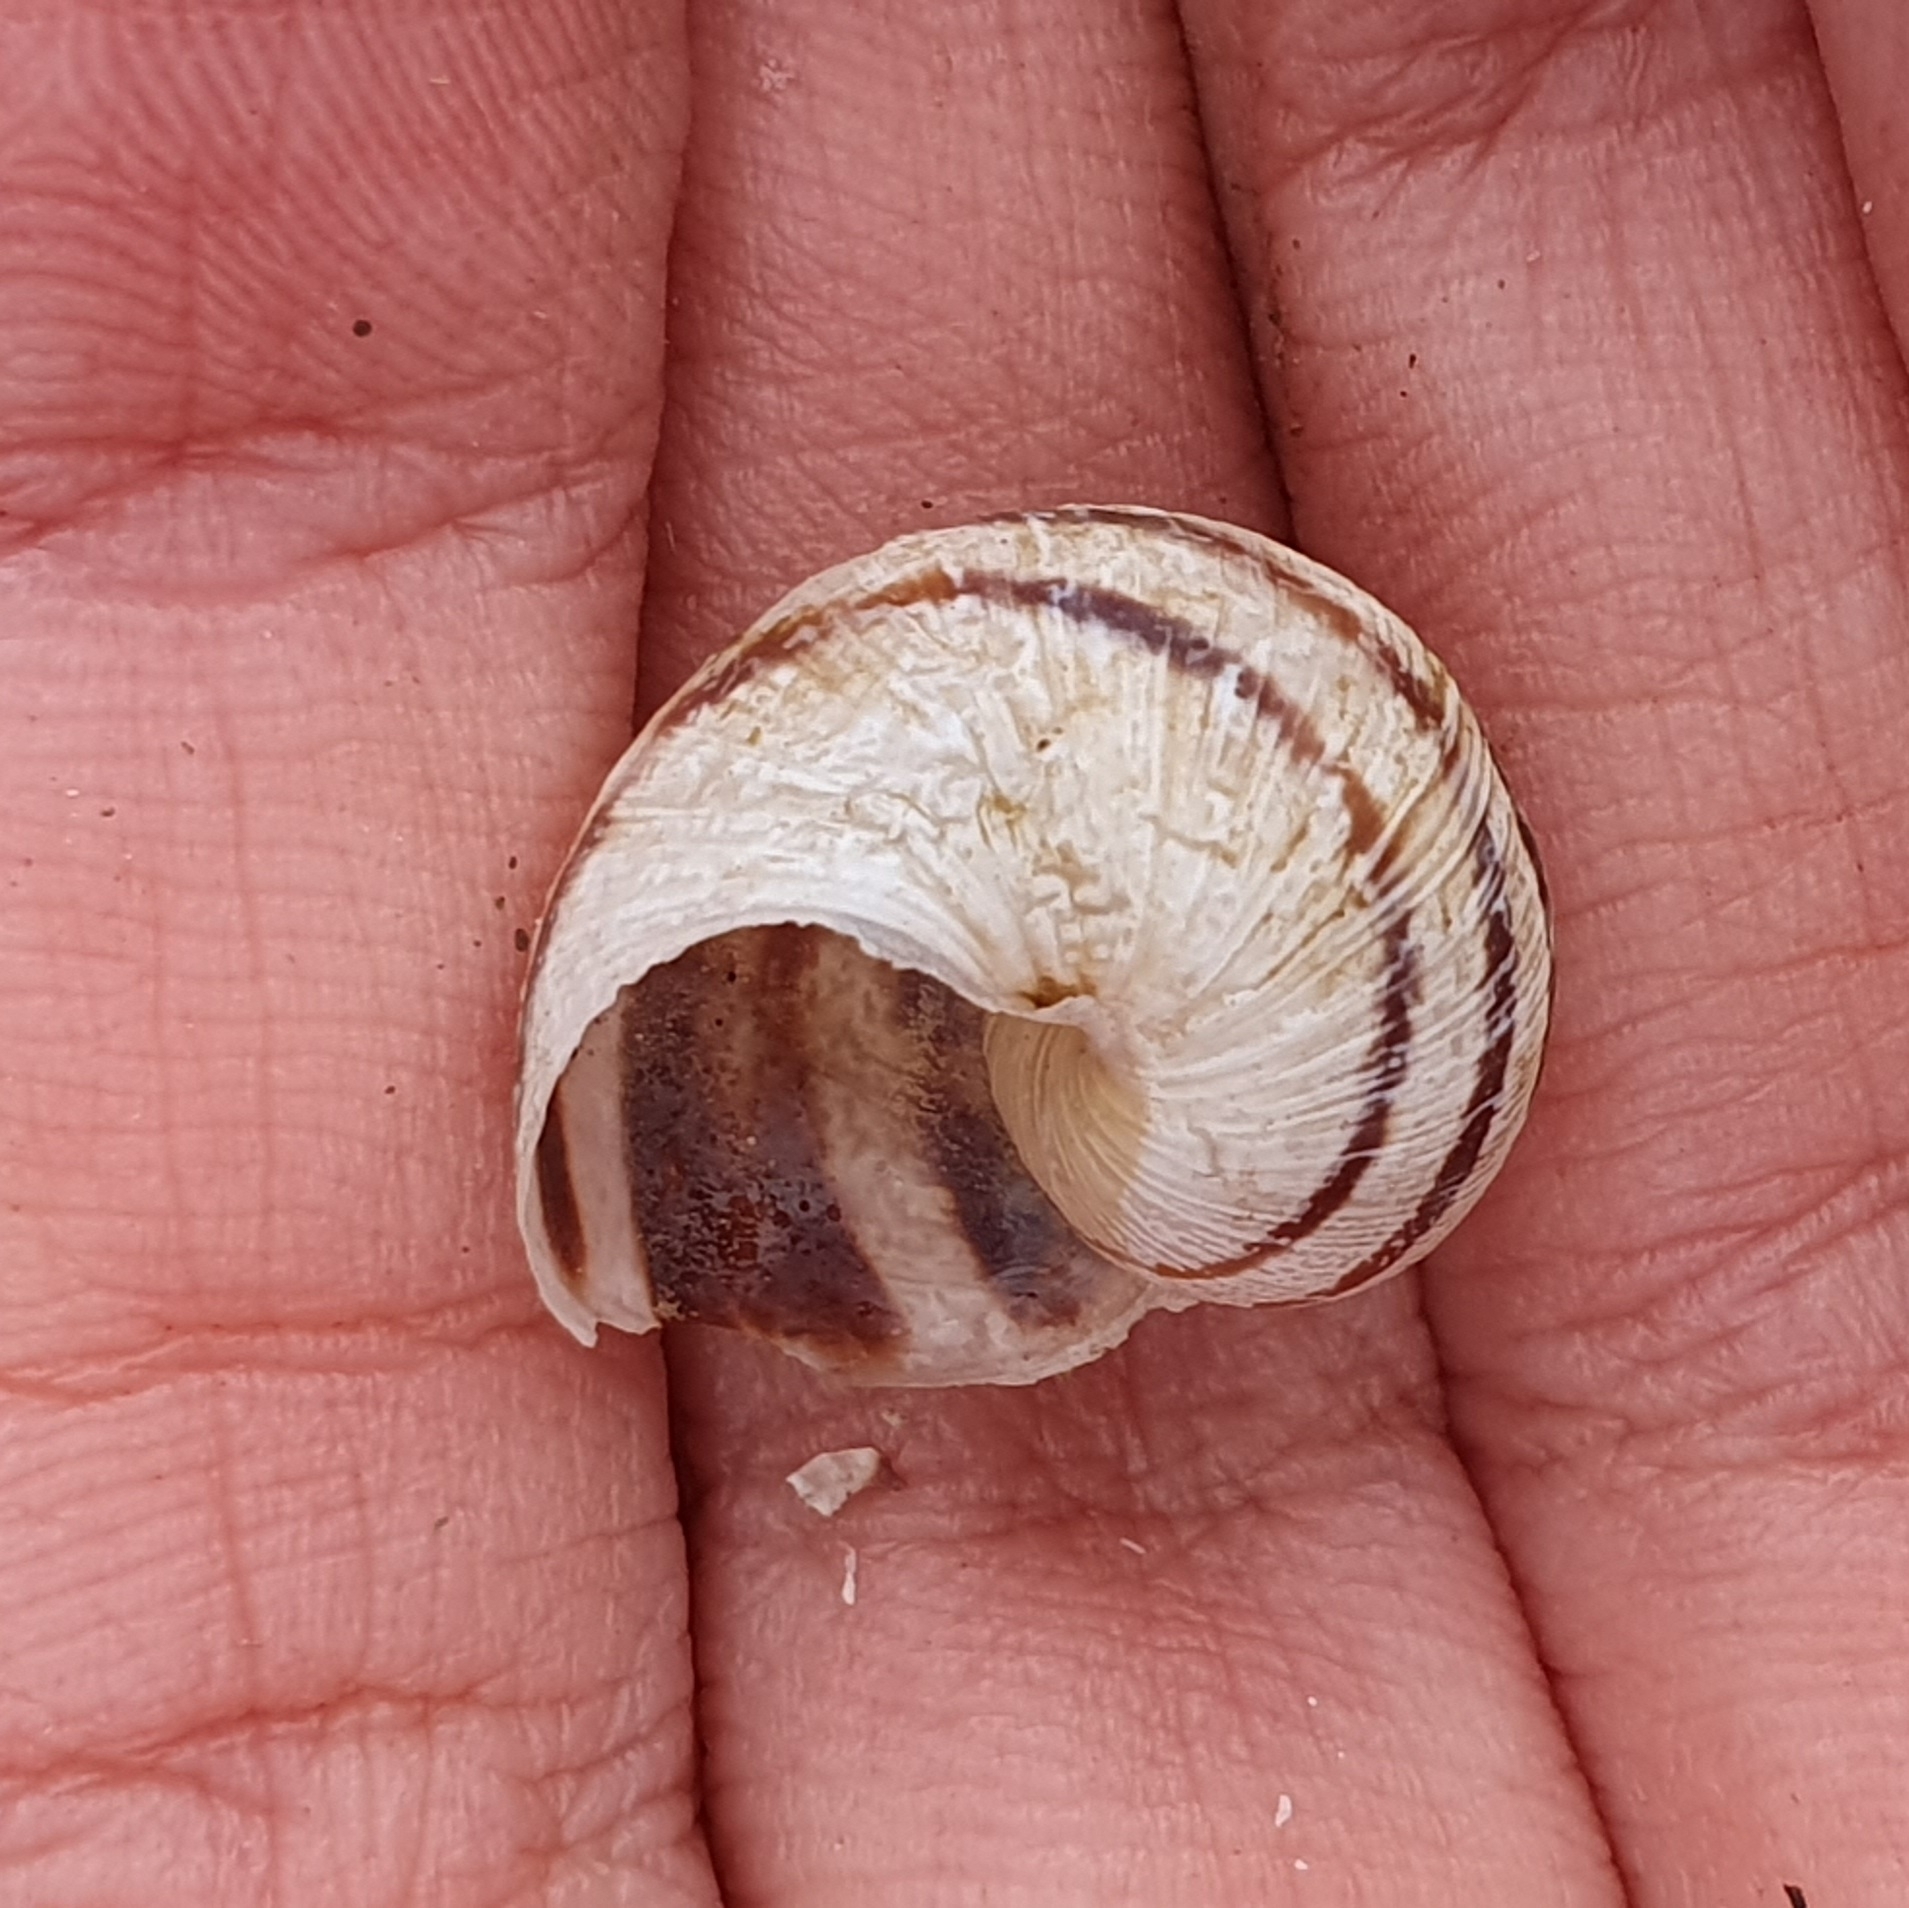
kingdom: Animalia
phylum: Mollusca
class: Gastropoda
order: Stylommatophora
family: Helicidae
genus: Cornu
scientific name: Cornu aspersum
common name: Brown garden snail
